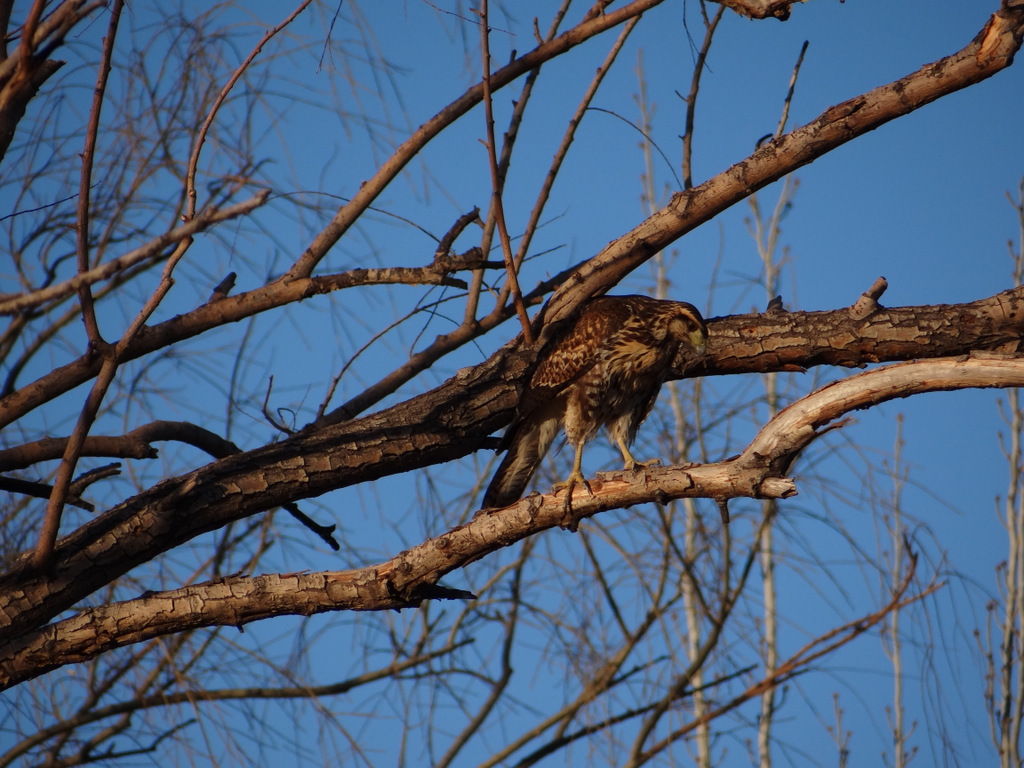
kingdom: Animalia
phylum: Chordata
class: Aves
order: Accipitriformes
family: Accipitridae
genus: Parabuteo
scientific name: Parabuteo unicinctus
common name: Harris's hawk
